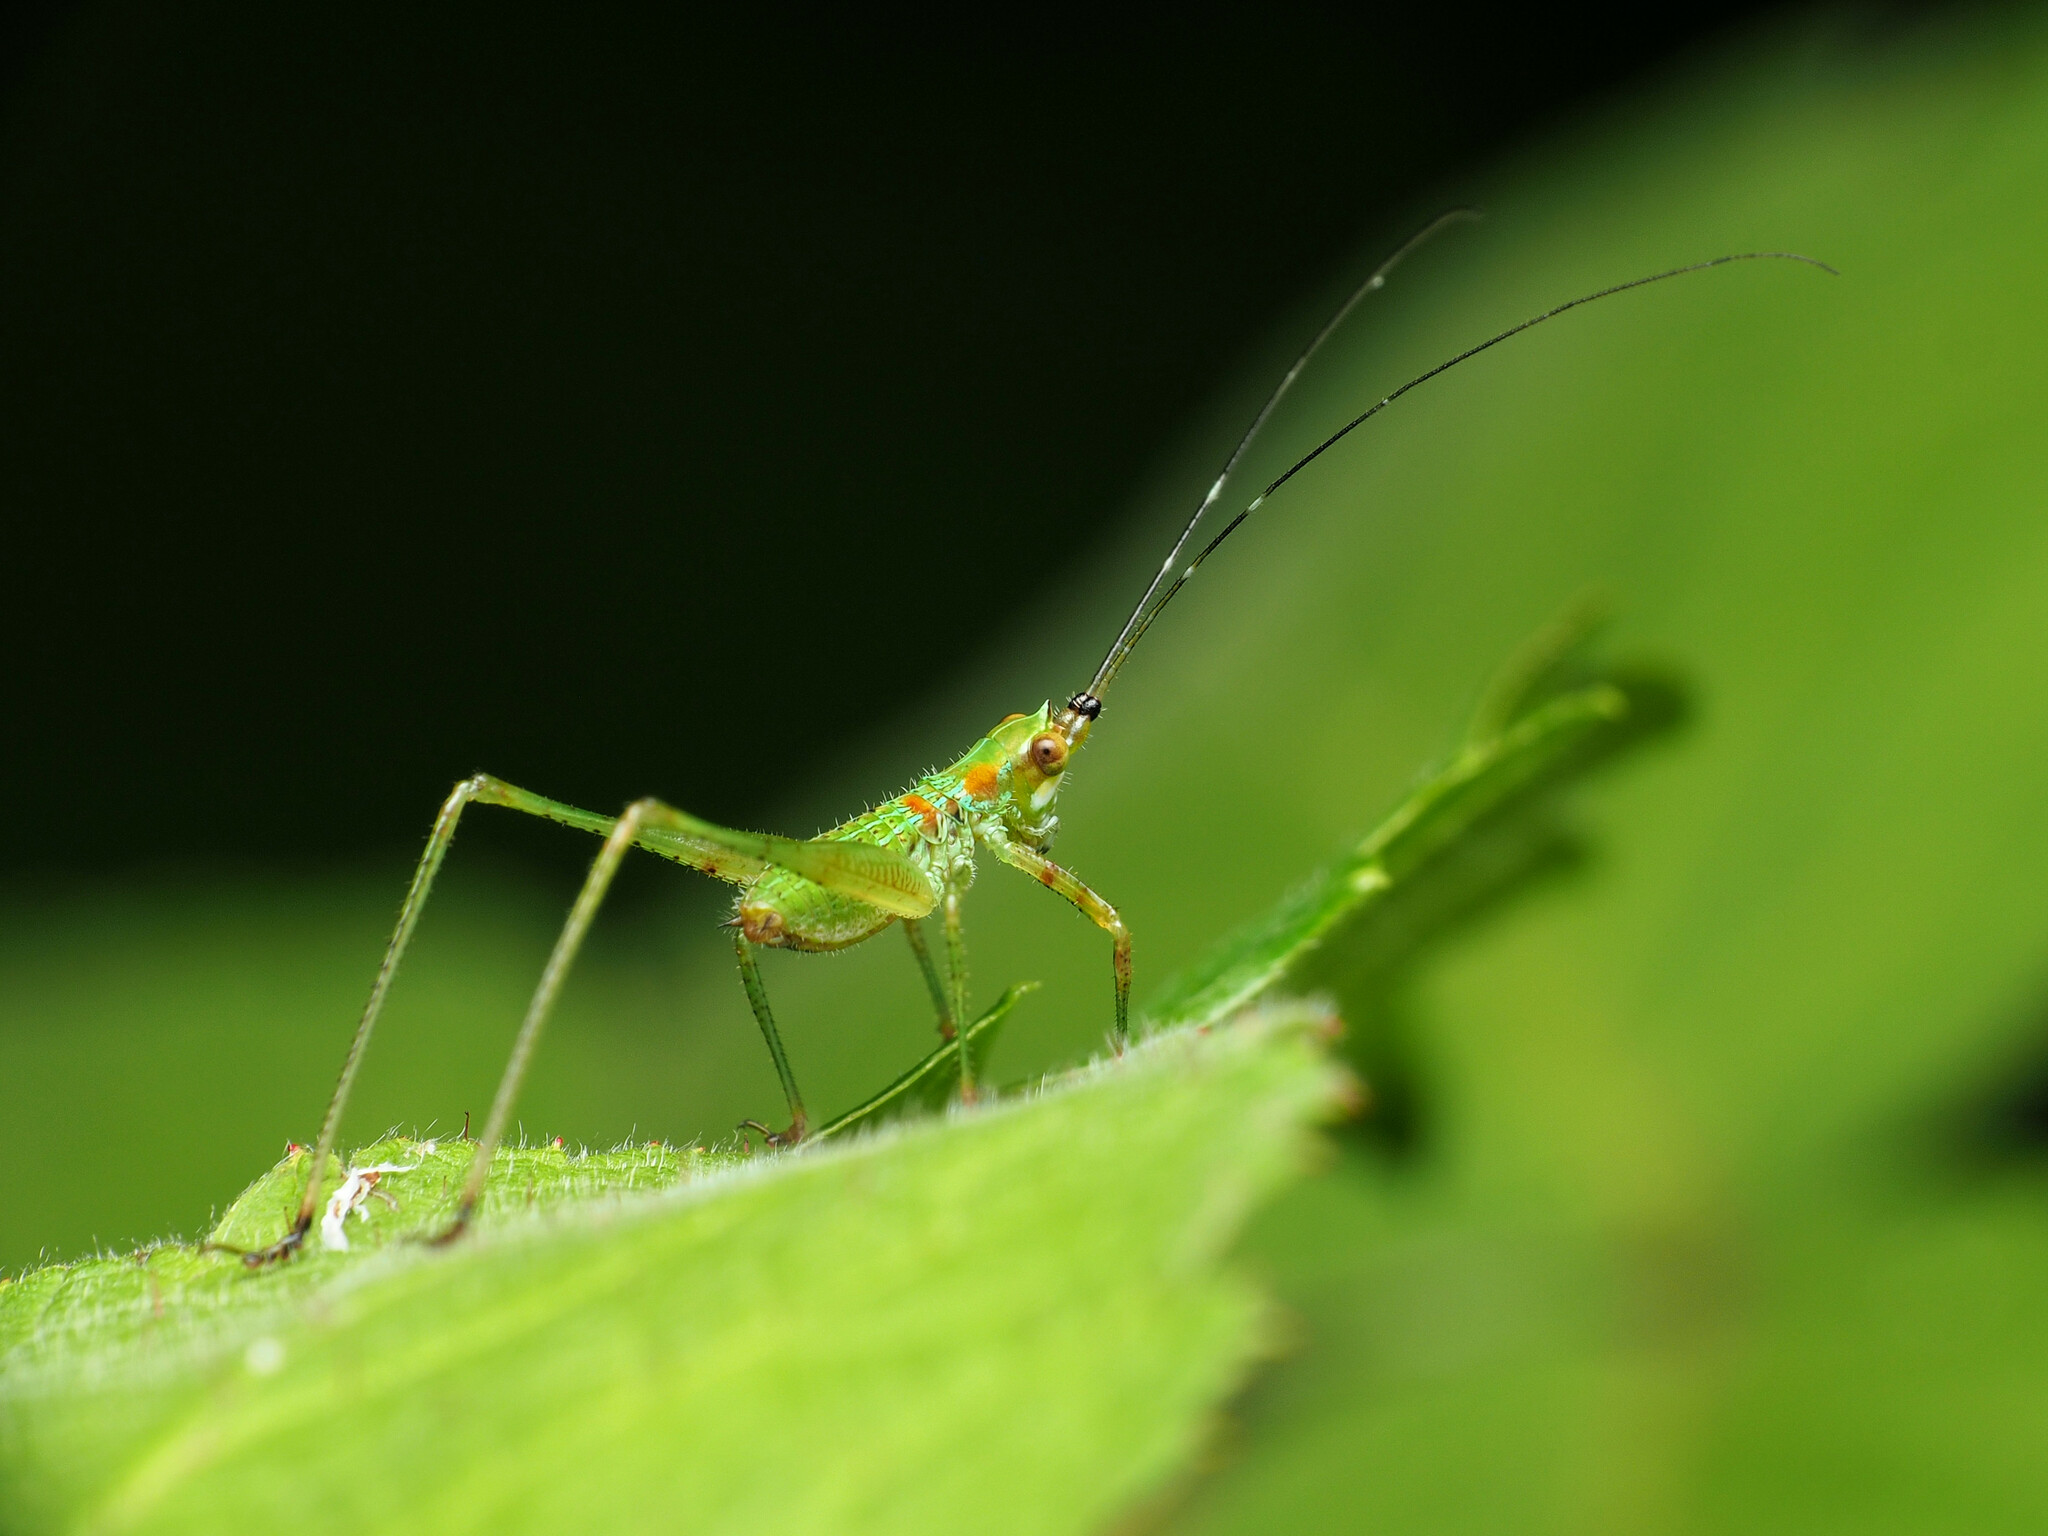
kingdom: Animalia
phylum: Arthropoda
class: Insecta
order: Orthoptera
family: Tettigoniidae
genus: Scudderia
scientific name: Scudderia
